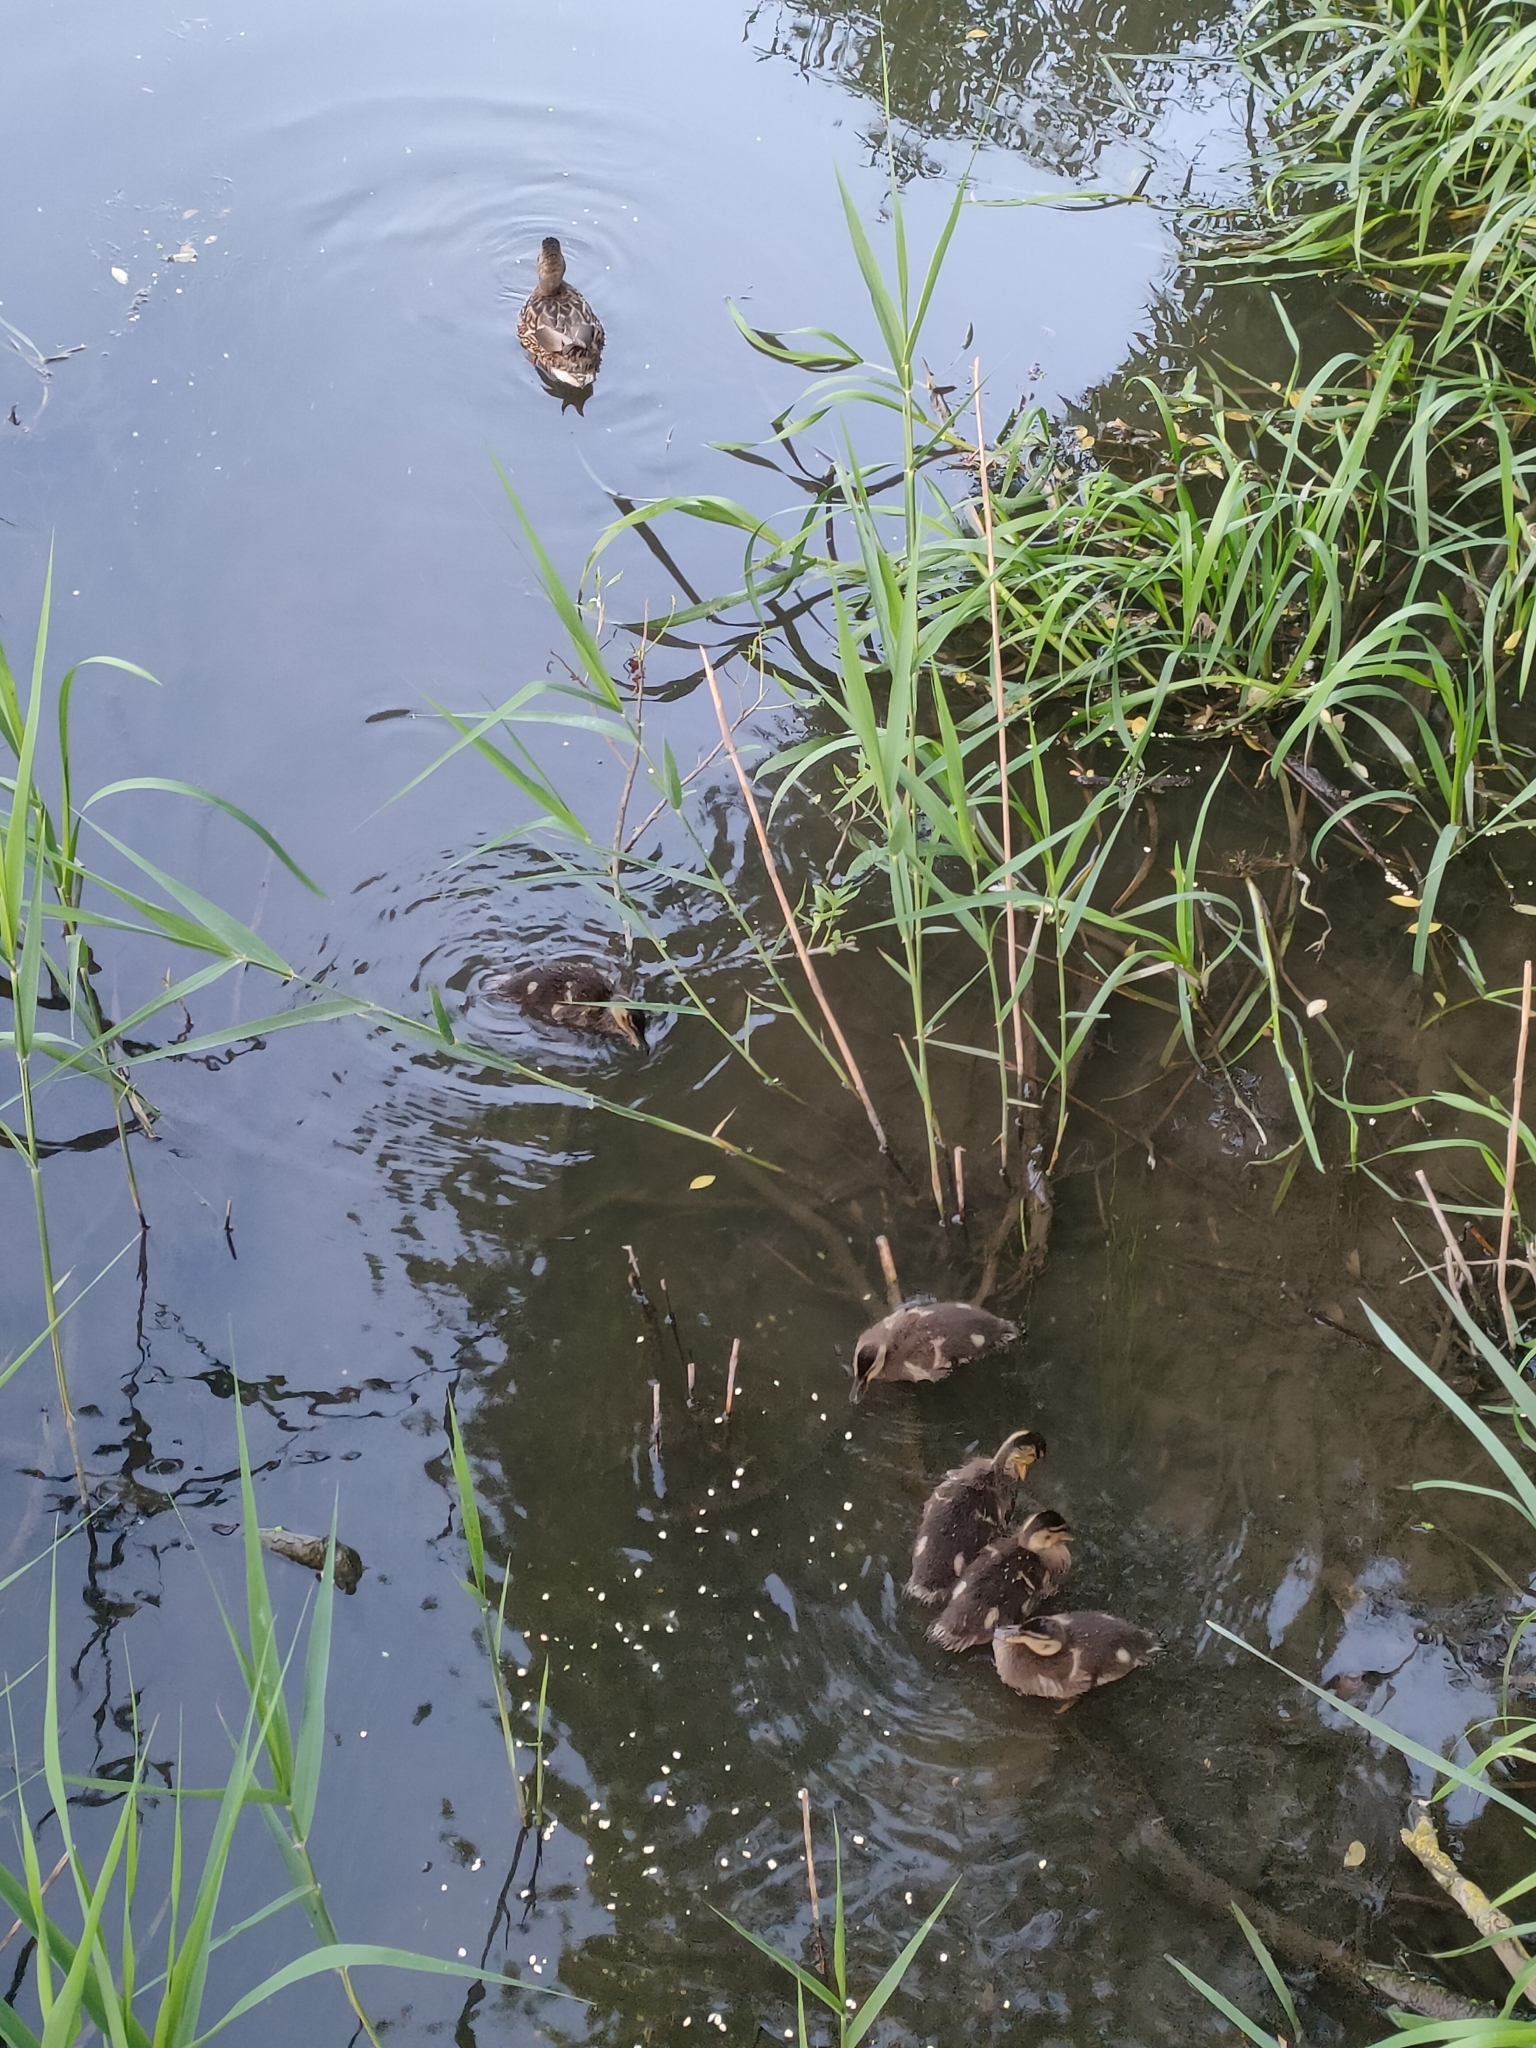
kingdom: Animalia
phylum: Chordata
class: Aves
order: Anseriformes
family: Anatidae
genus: Anas
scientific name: Anas platyrhynchos
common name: Mallard
